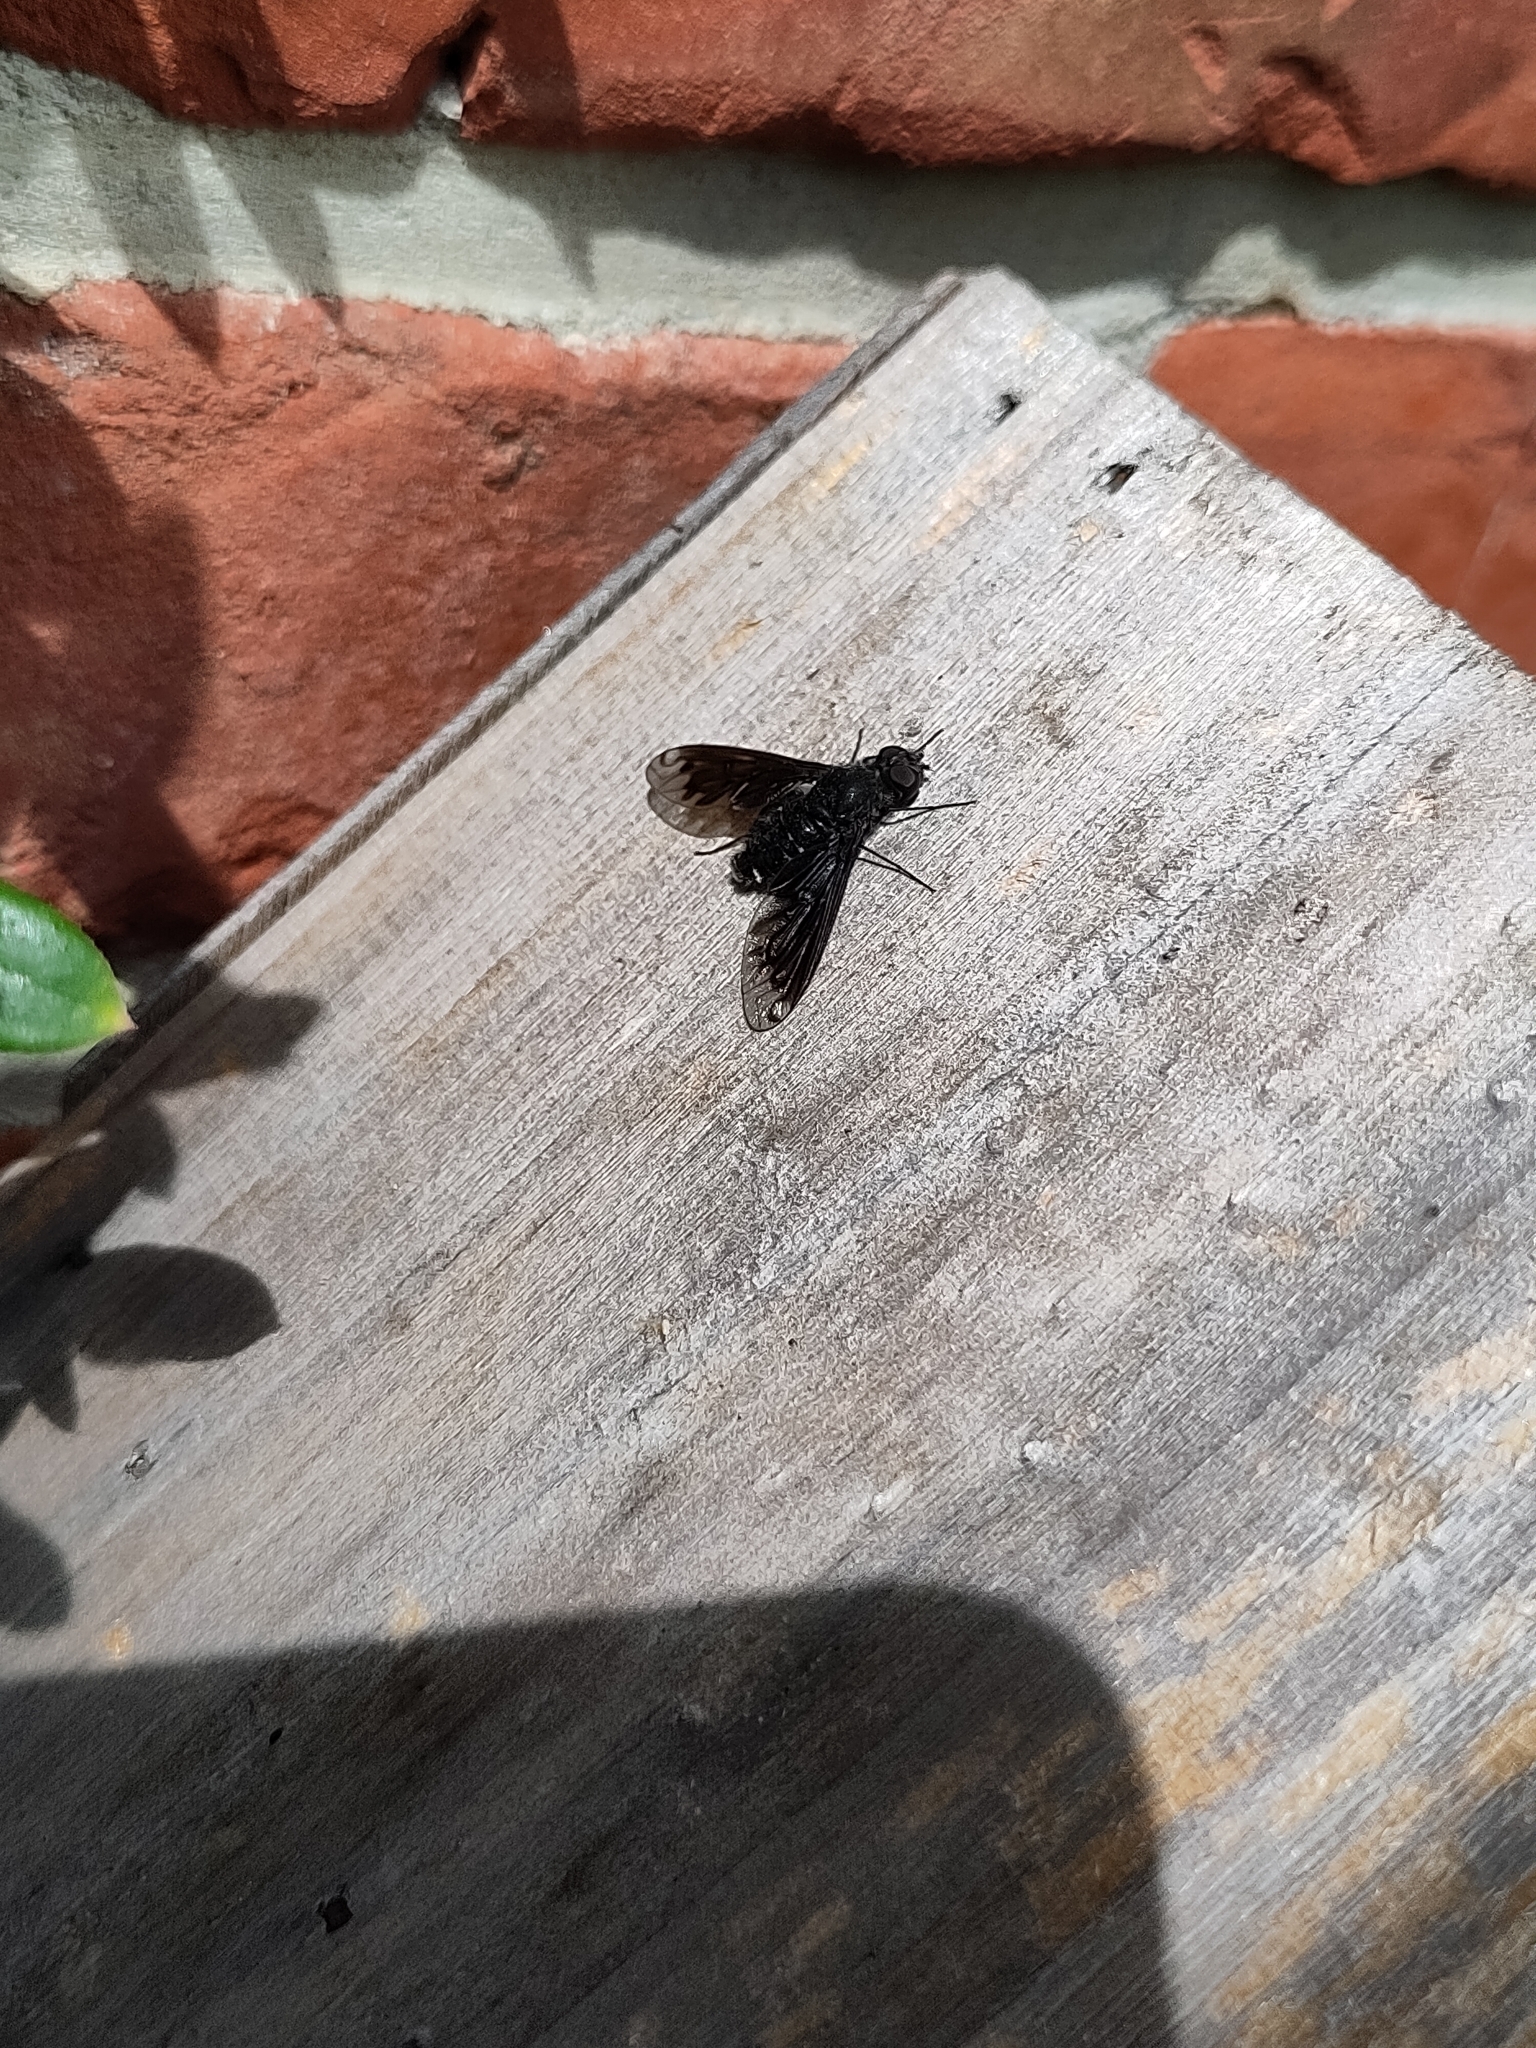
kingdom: Animalia
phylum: Arthropoda
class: Insecta
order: Diptera
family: Bombyliidae
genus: Anthrax
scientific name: Anthrax anthrax
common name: Anthracite bee-fly
